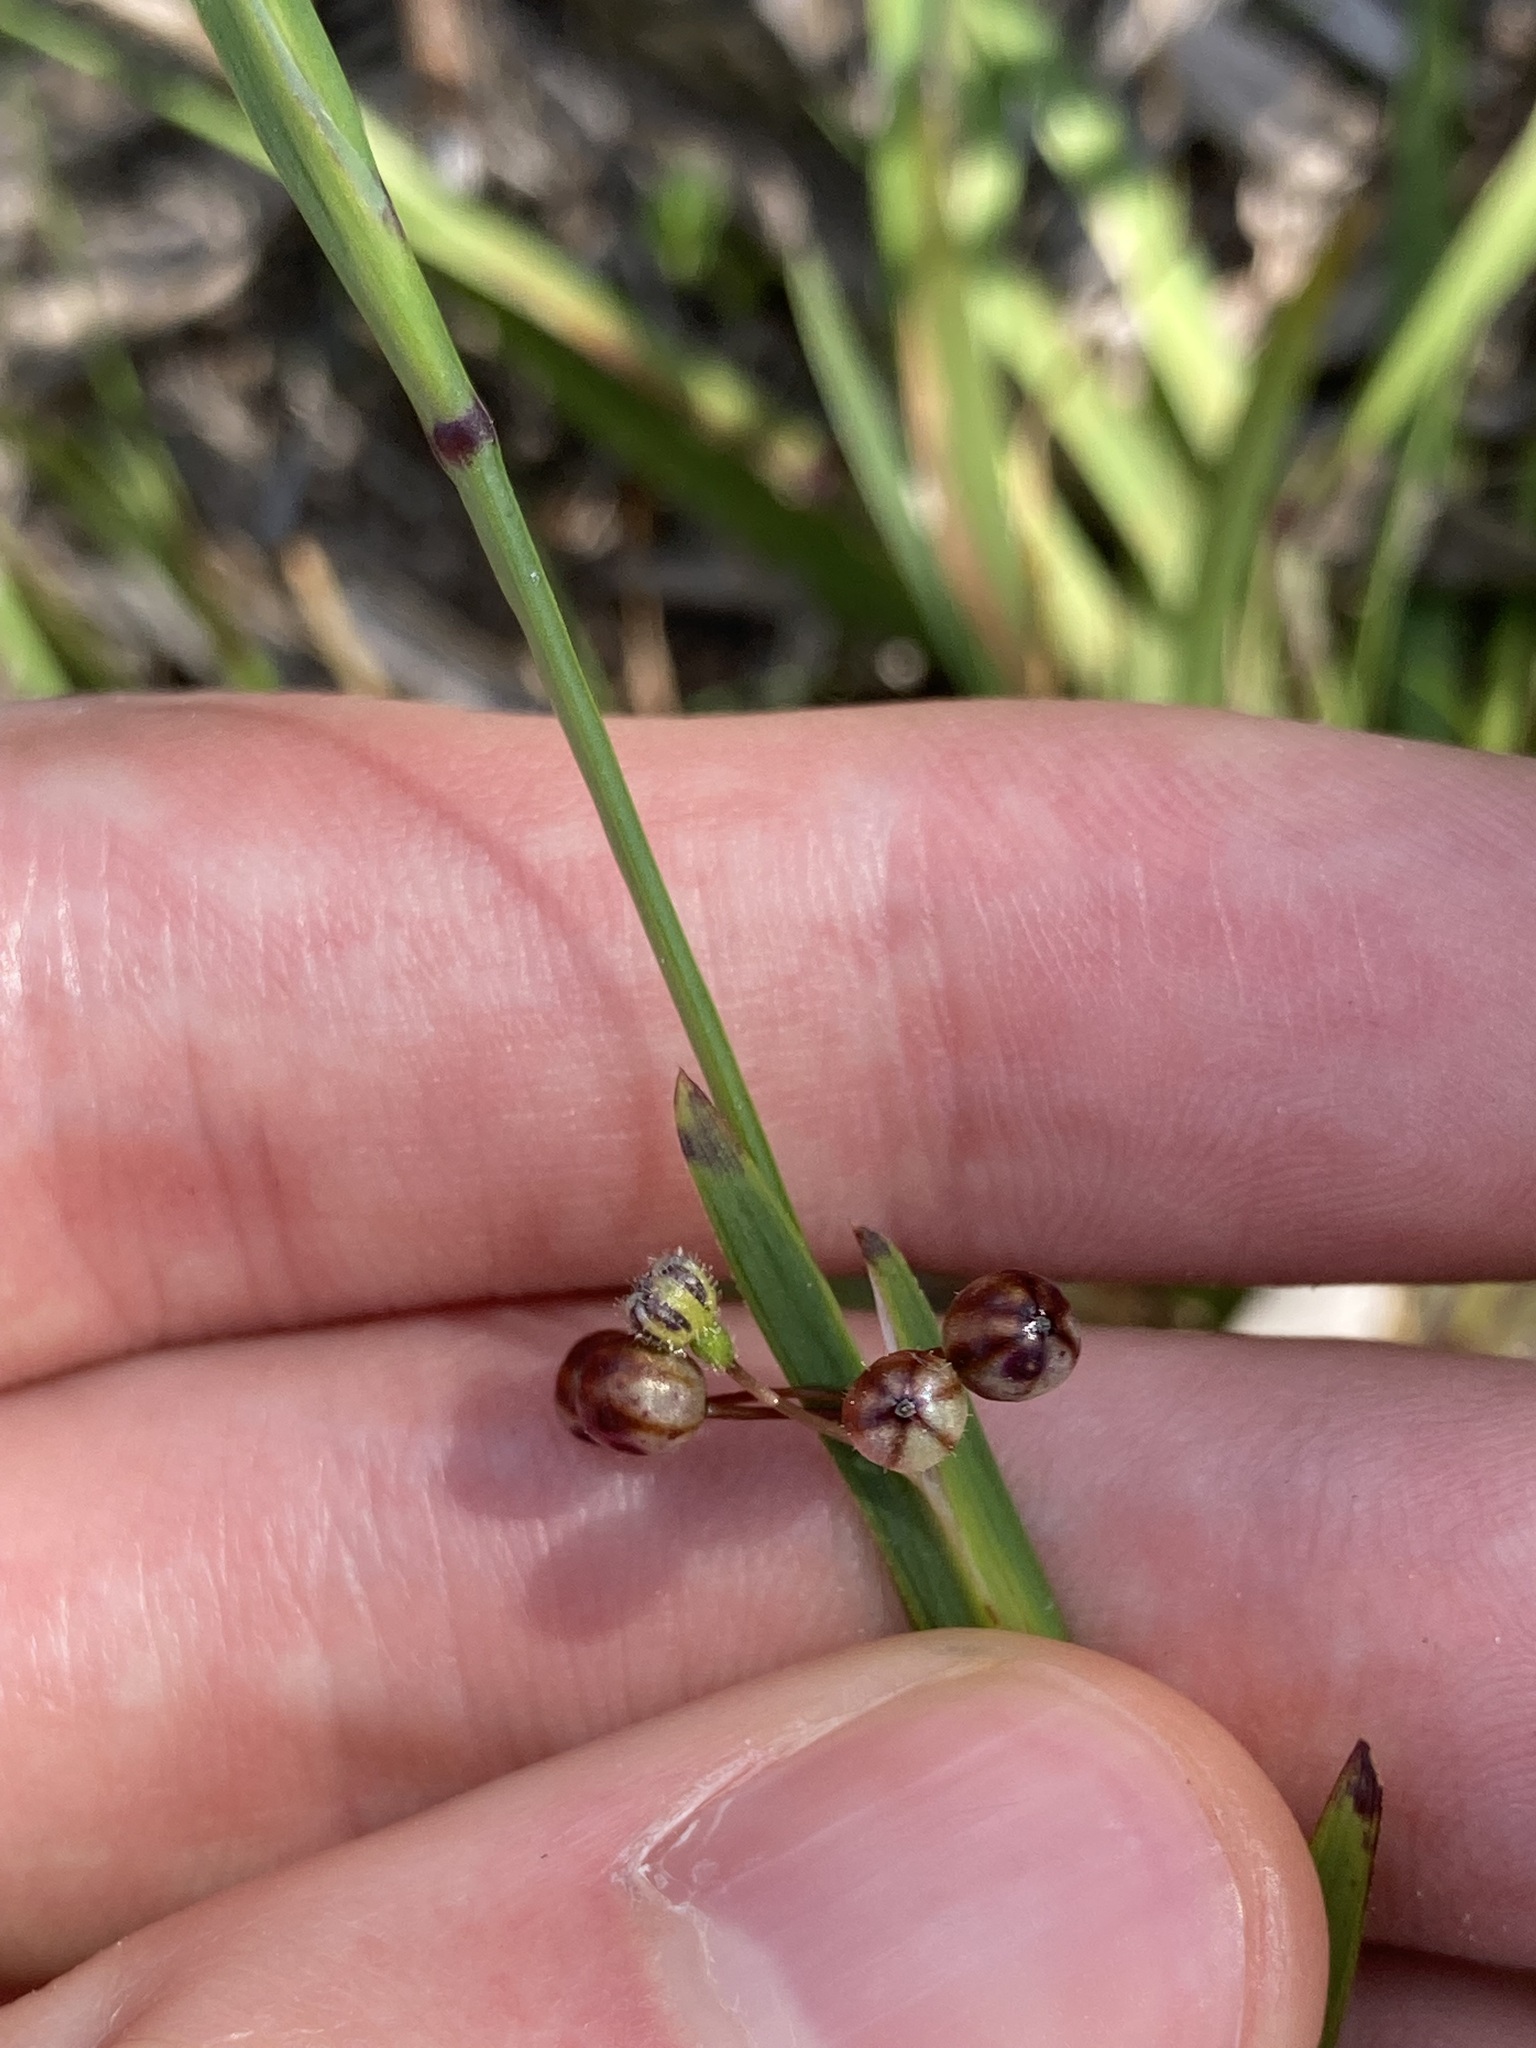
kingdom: Plantae
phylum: Tracheophyta
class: Liliopsida
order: Asparagales
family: Iridaceae
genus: Sisyrinchium
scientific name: Sisyrinchium micranthum
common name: Bermuda pigroot
